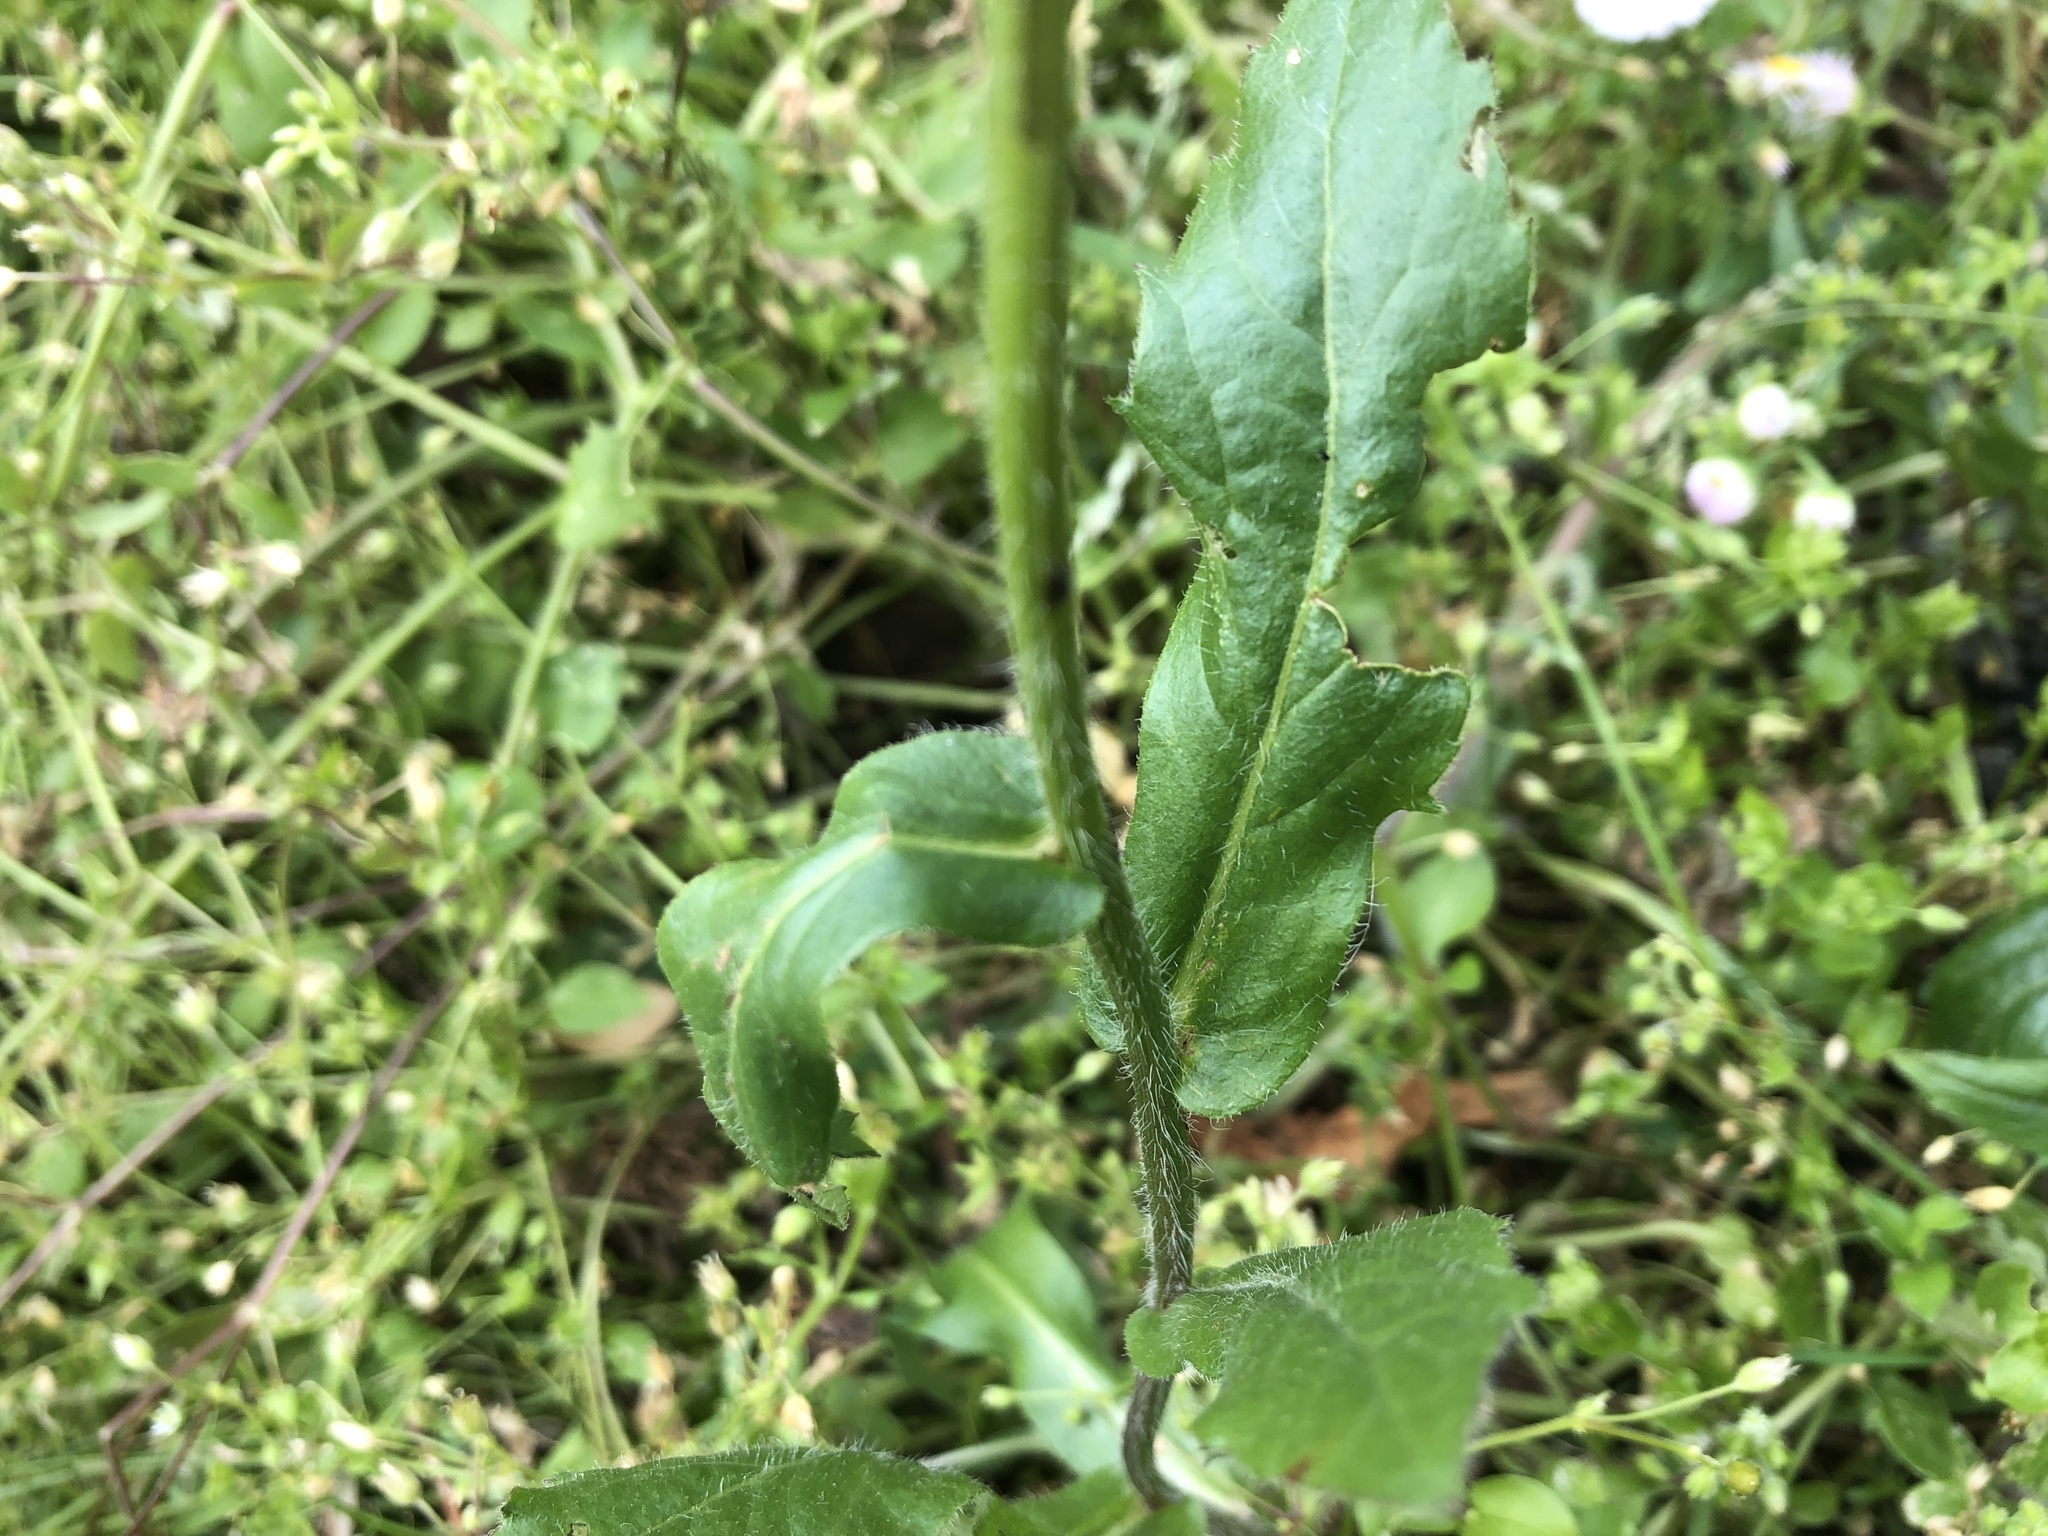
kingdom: Plantae
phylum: Tracheophyta
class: Magnoliopsida
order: Asterales
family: Asteraceae
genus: Erigeron
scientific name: Erigeron philadelphicus
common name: Robin's-plantain
